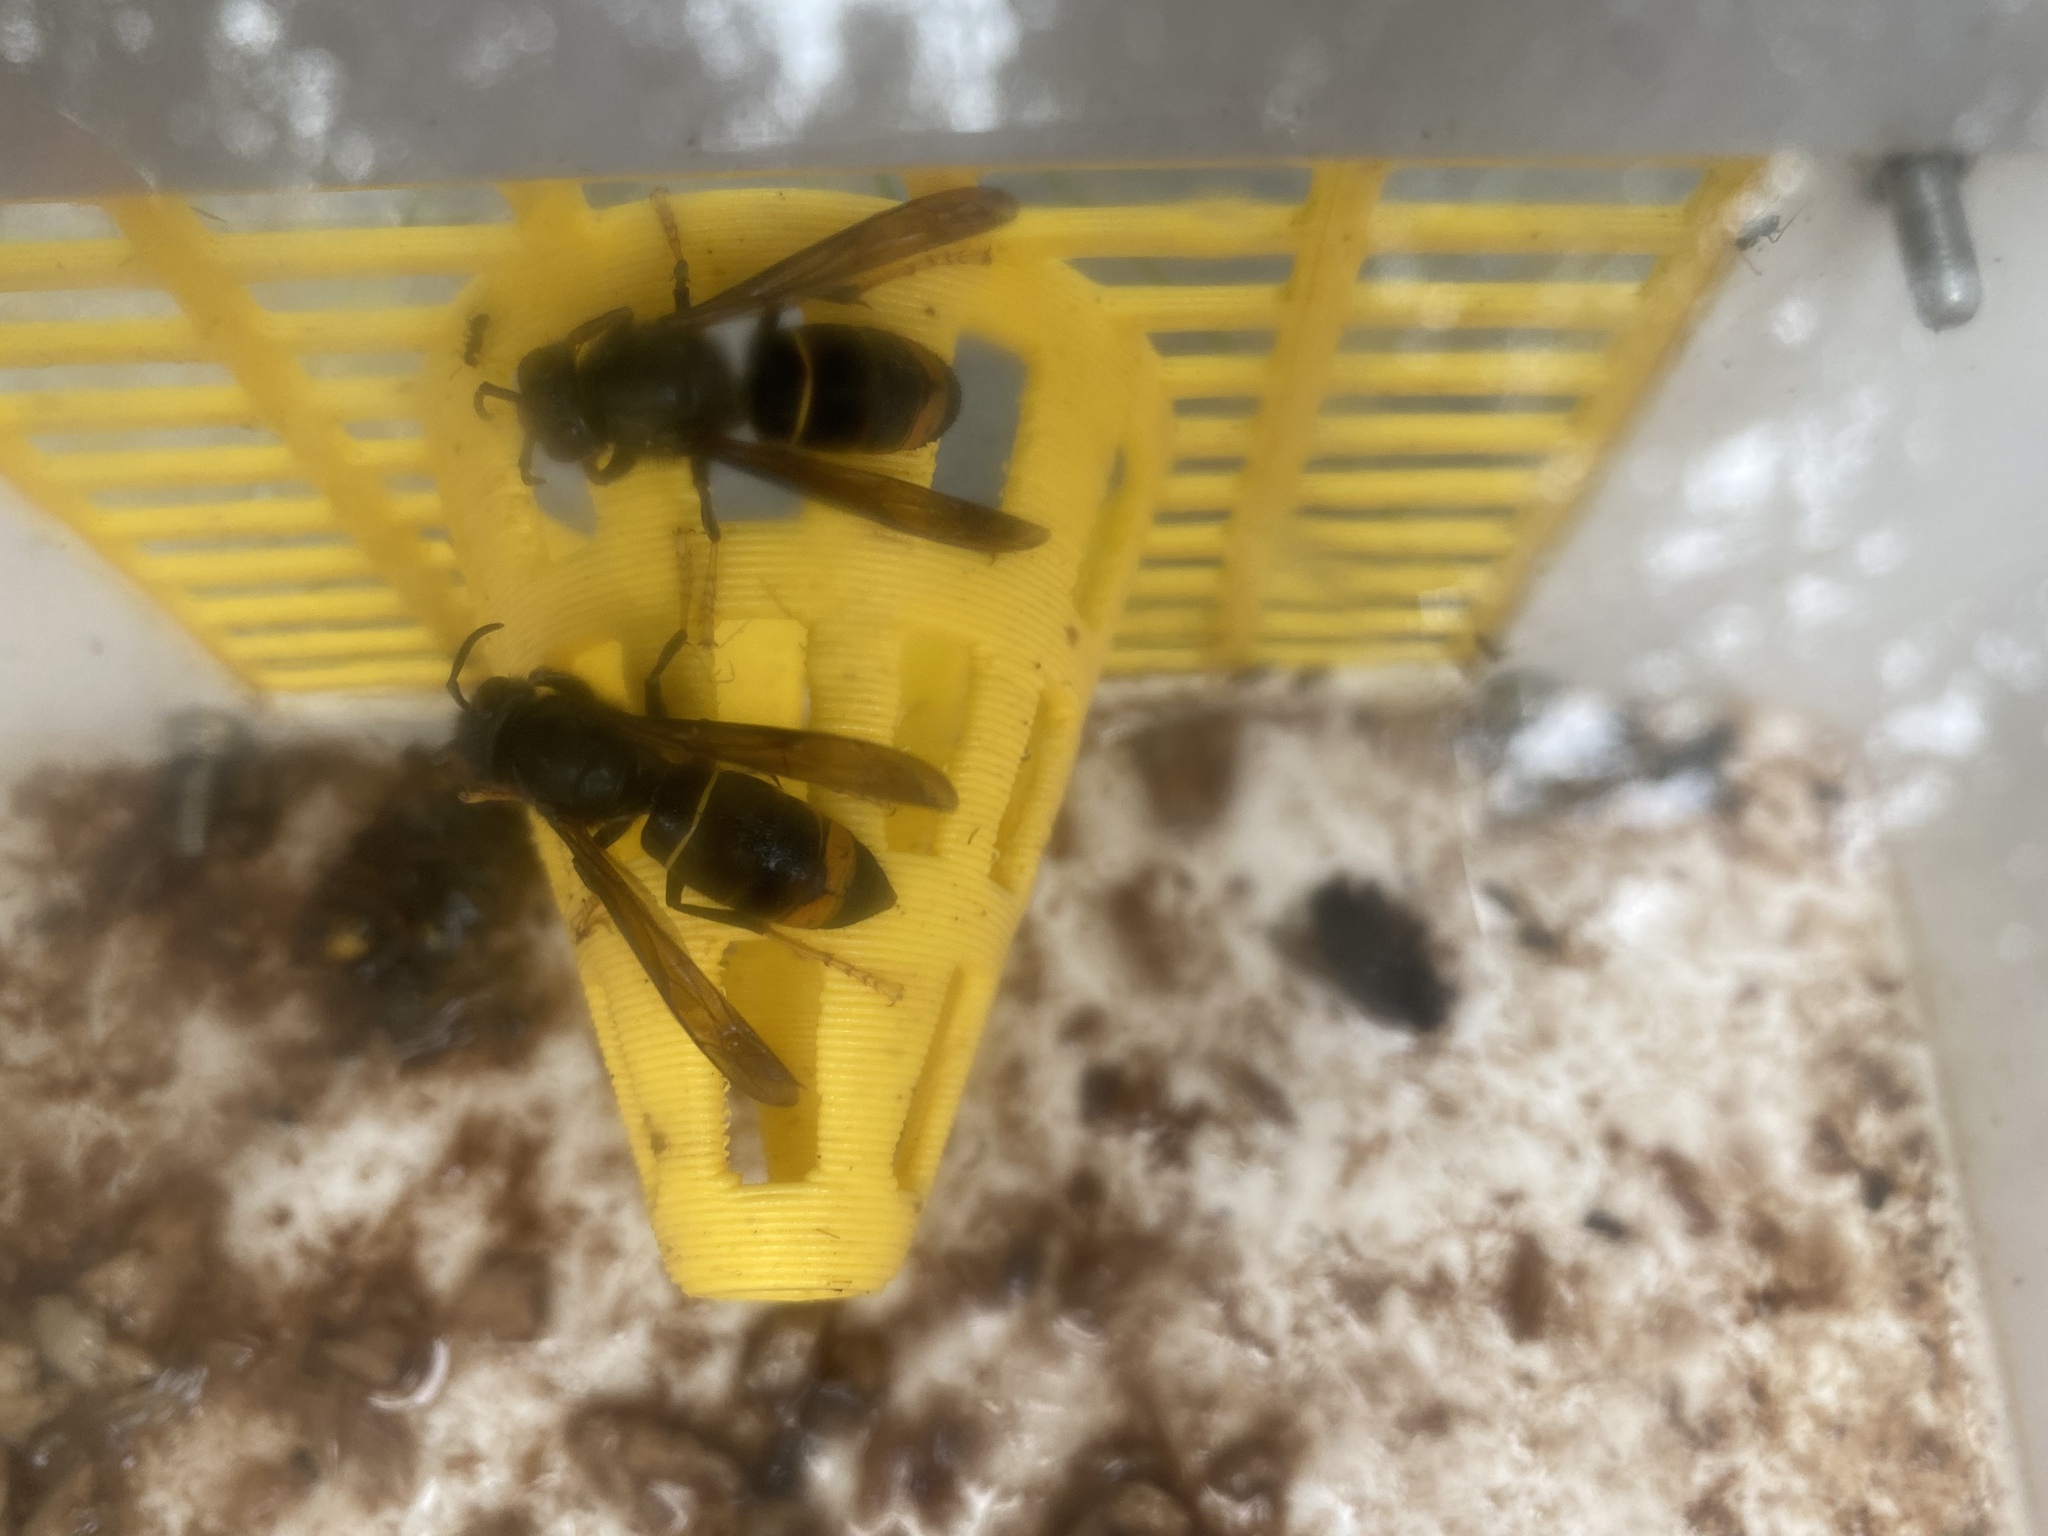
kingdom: Animalia
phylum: Arthropoda
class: Insecta
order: Hymenoptera
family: Vespidae
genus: Vespa
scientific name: Vespa velutina
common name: Asian hornet
